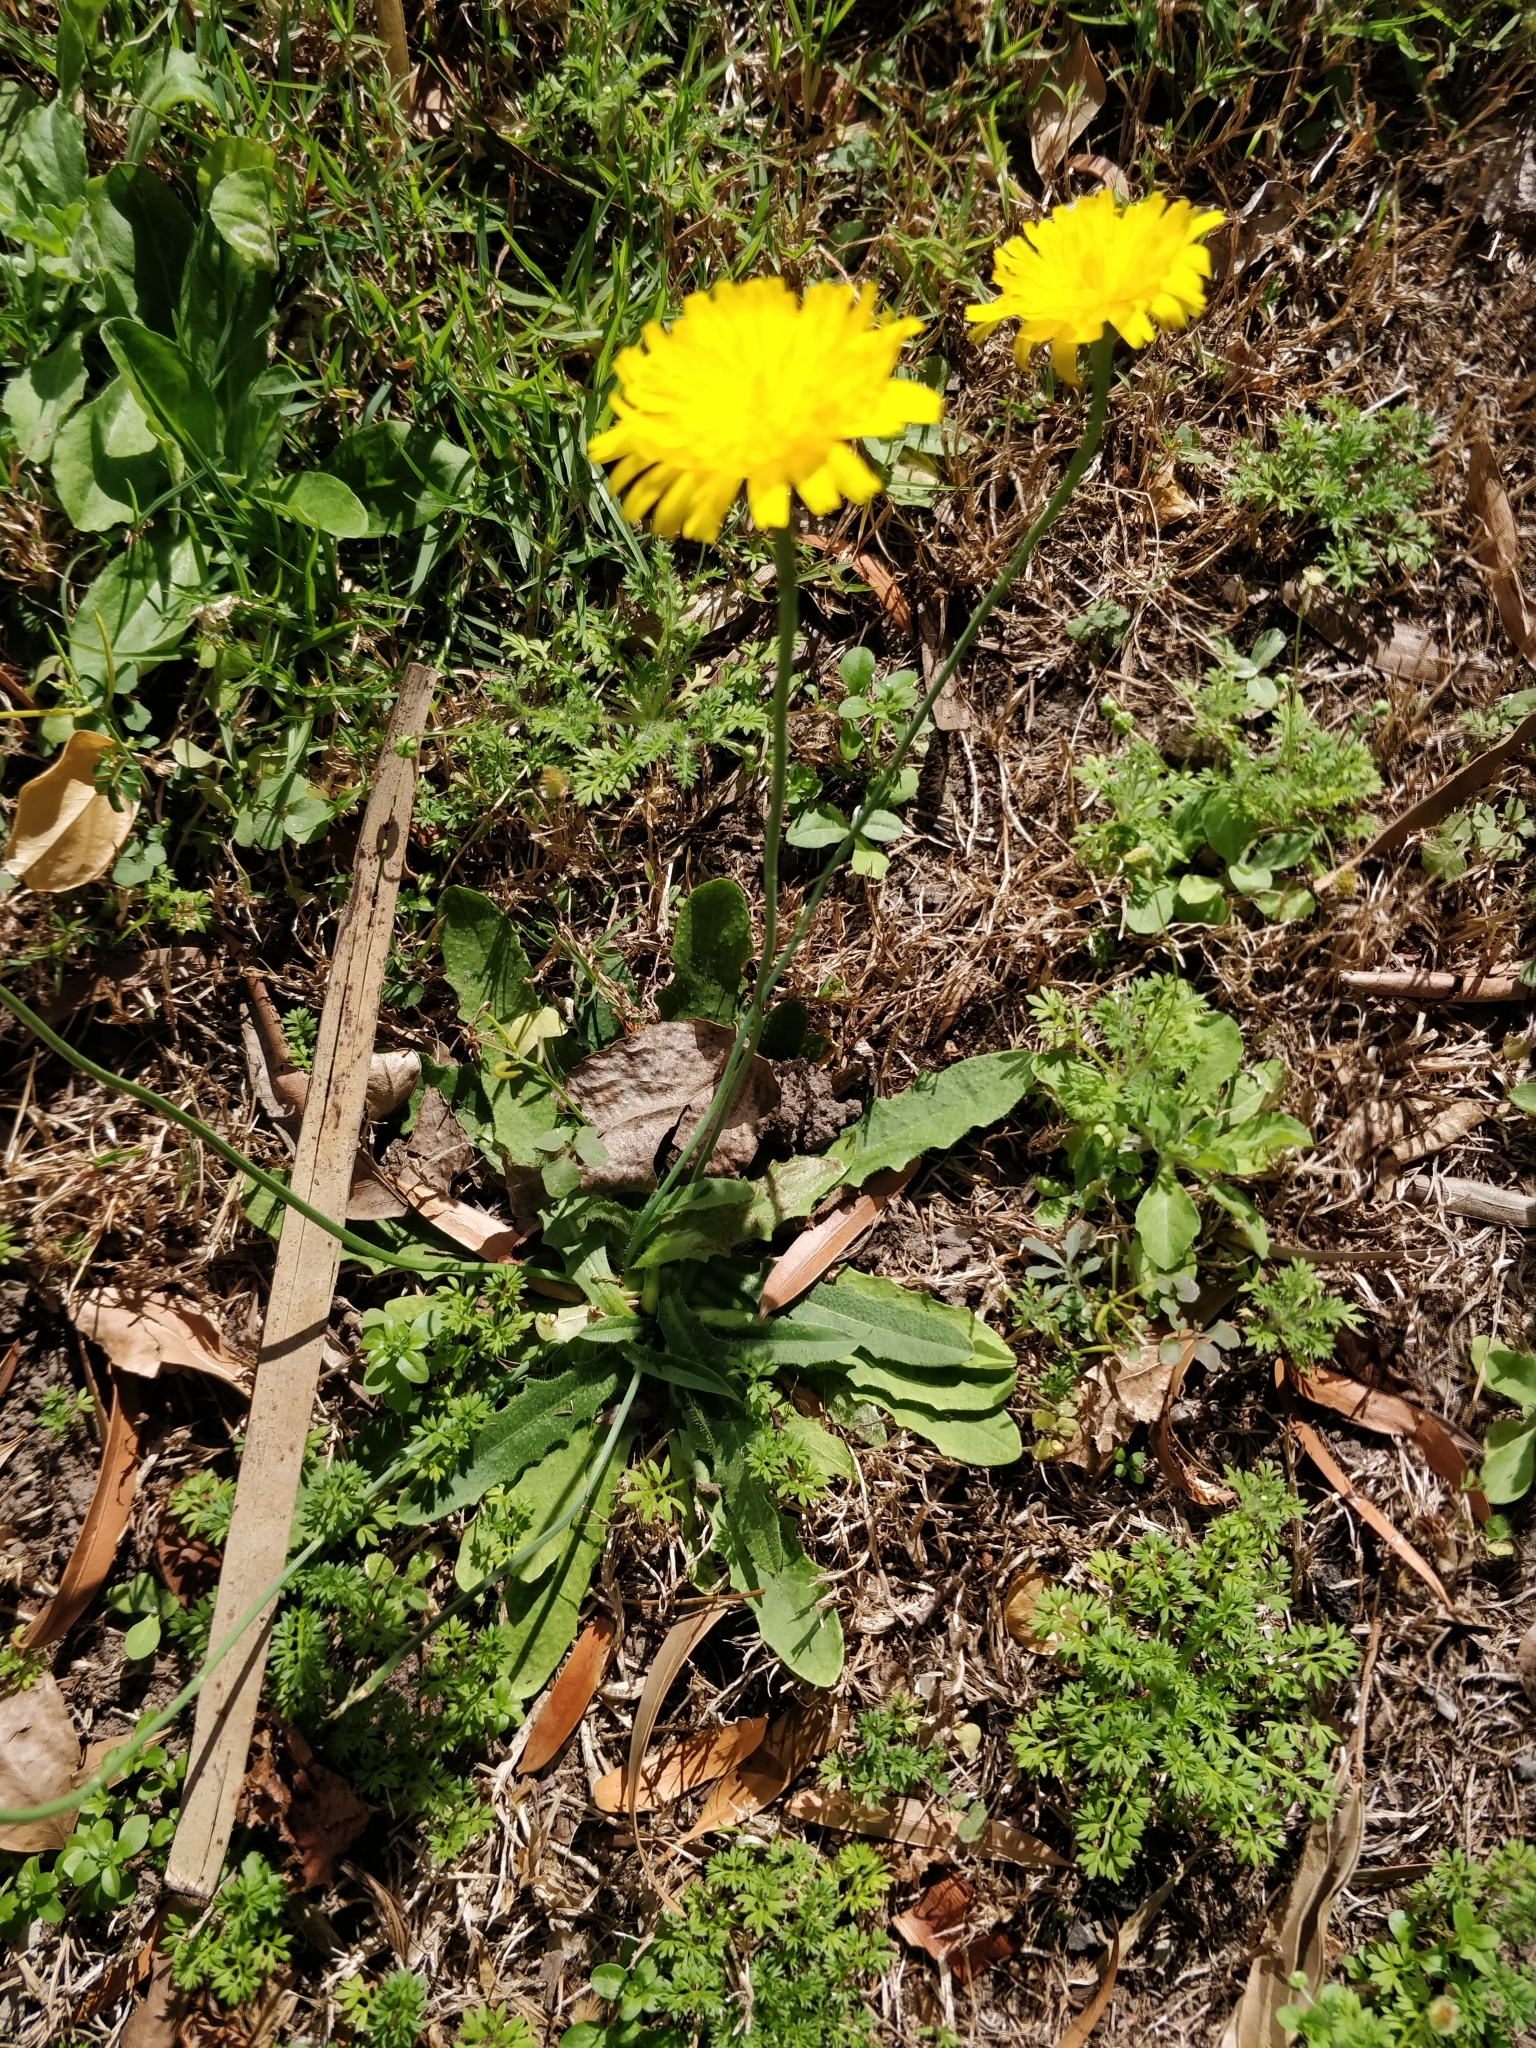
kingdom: Plantae
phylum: Tracheophyta
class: Magnoliopsida
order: Asterales
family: Asteraceae
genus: Hypochaeris
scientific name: Hypochaeris radicata
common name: Flatweed
